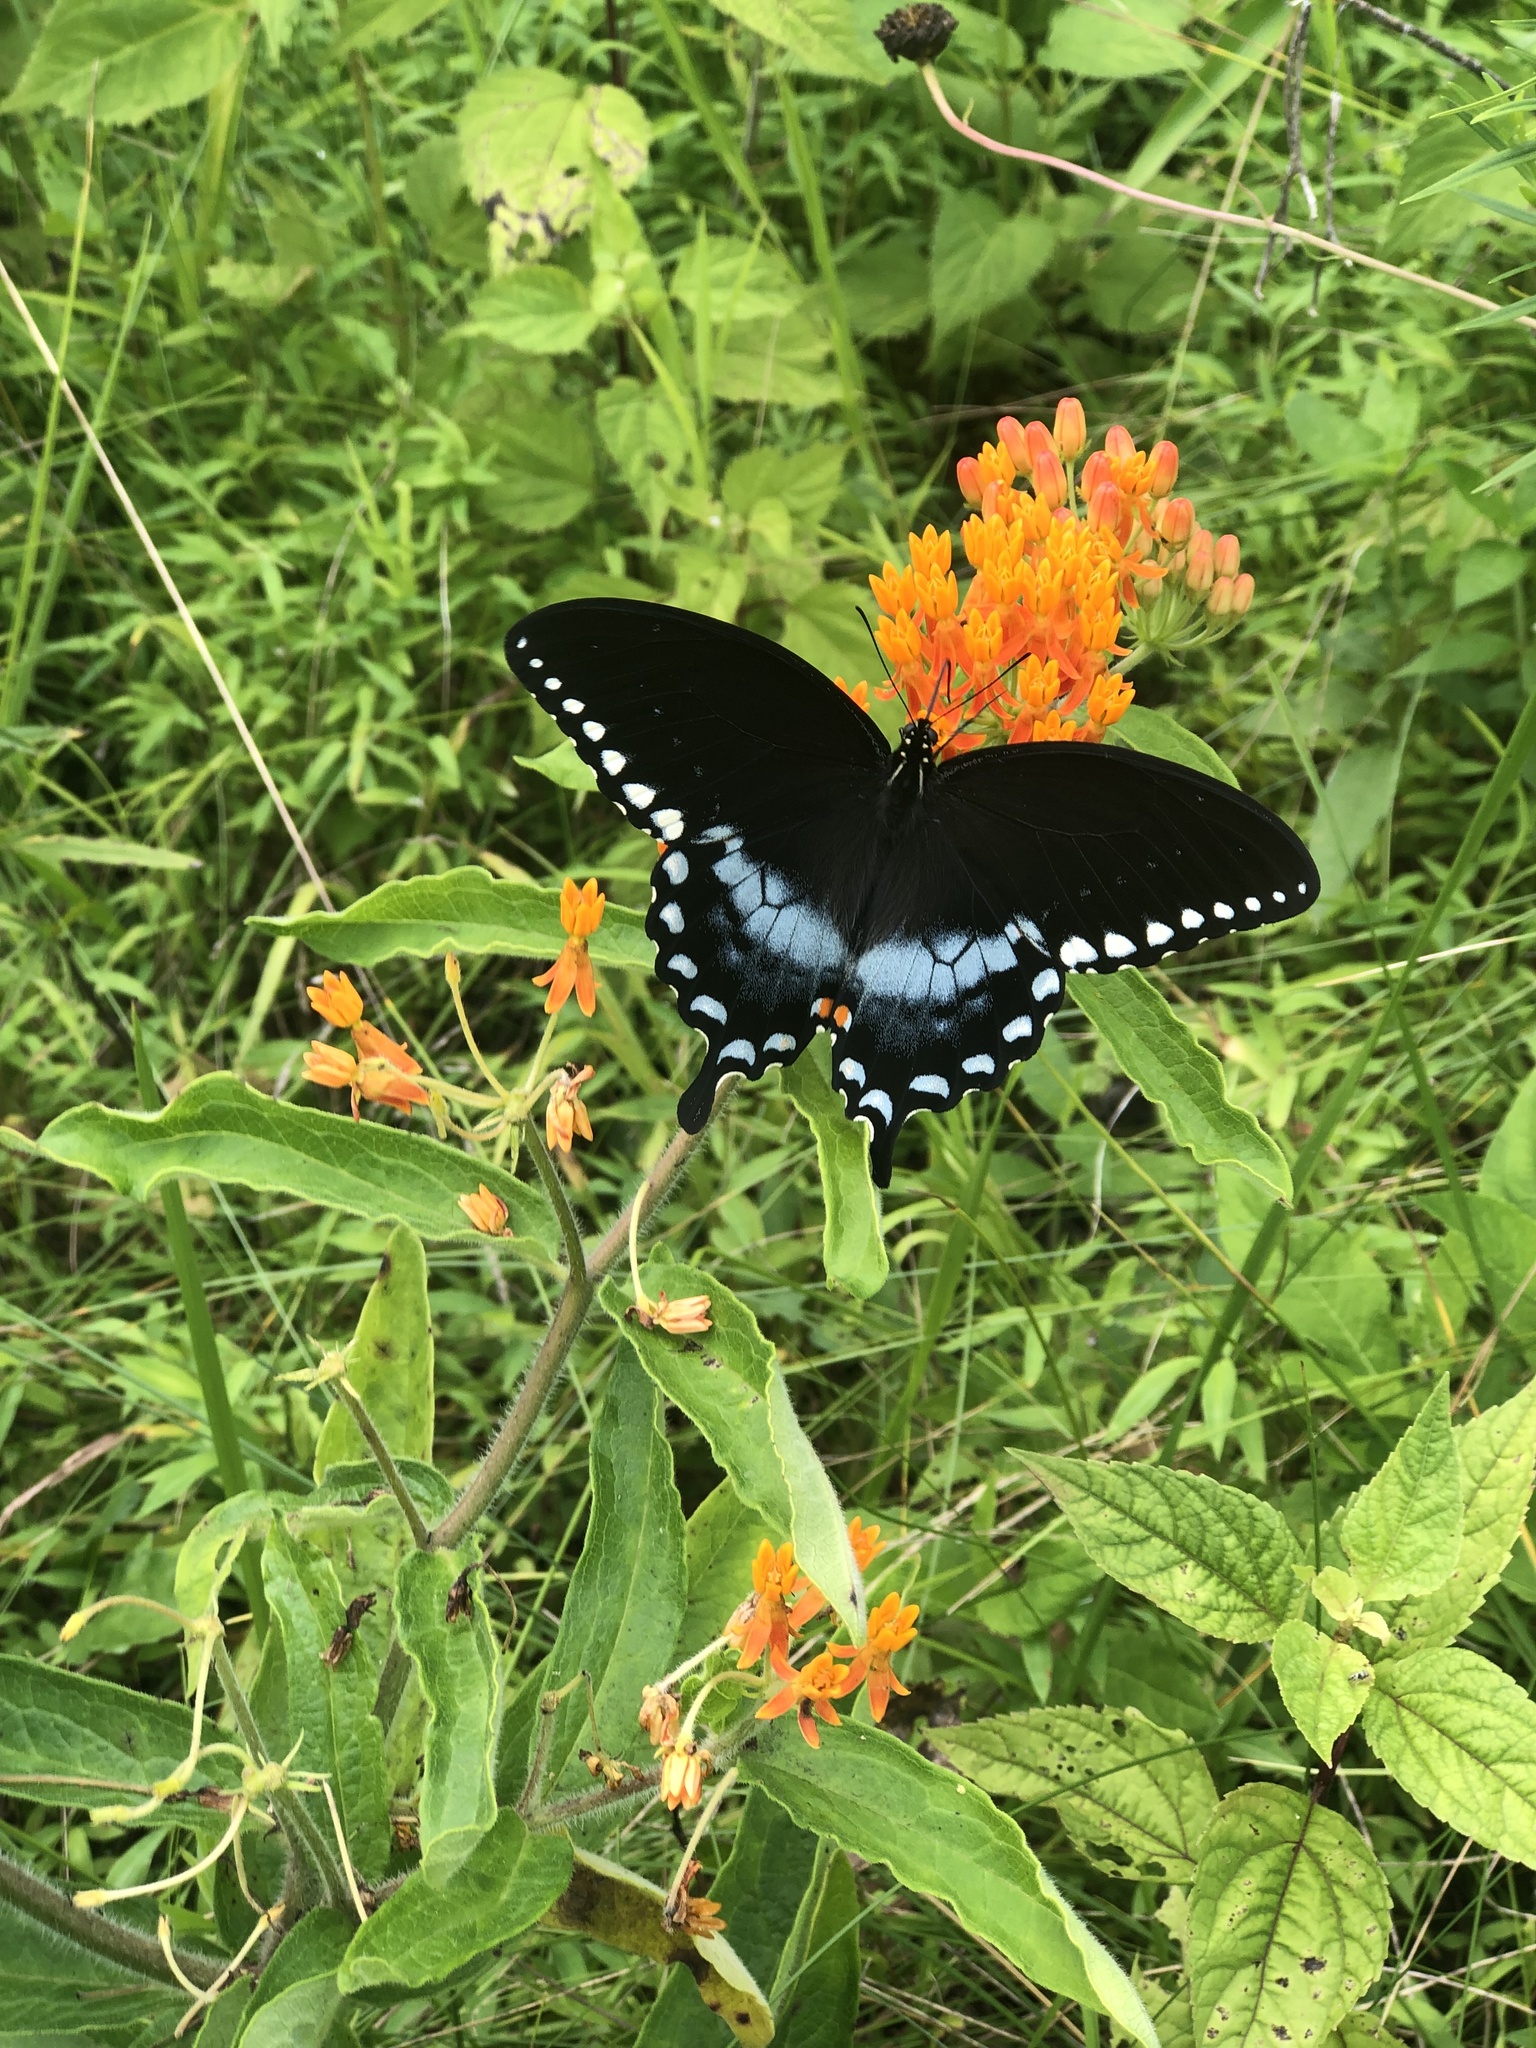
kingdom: Animalia
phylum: Arthropoda
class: Insecta
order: Lepidoptera
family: Papilionidae
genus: Papilio
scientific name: Papilio troilus
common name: Spicebush swallowtail
